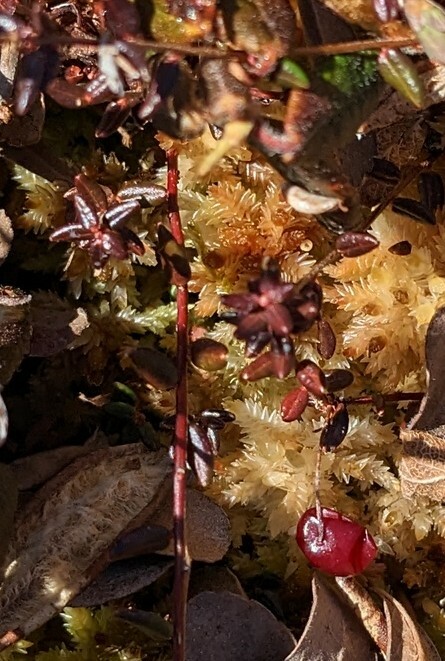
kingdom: Plantae
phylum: Tracheophyta
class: Magnoliopsida
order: Ericales
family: Ericaceae
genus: Vaccinium
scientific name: Vaccinium oxycoccos
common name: Cranberry
